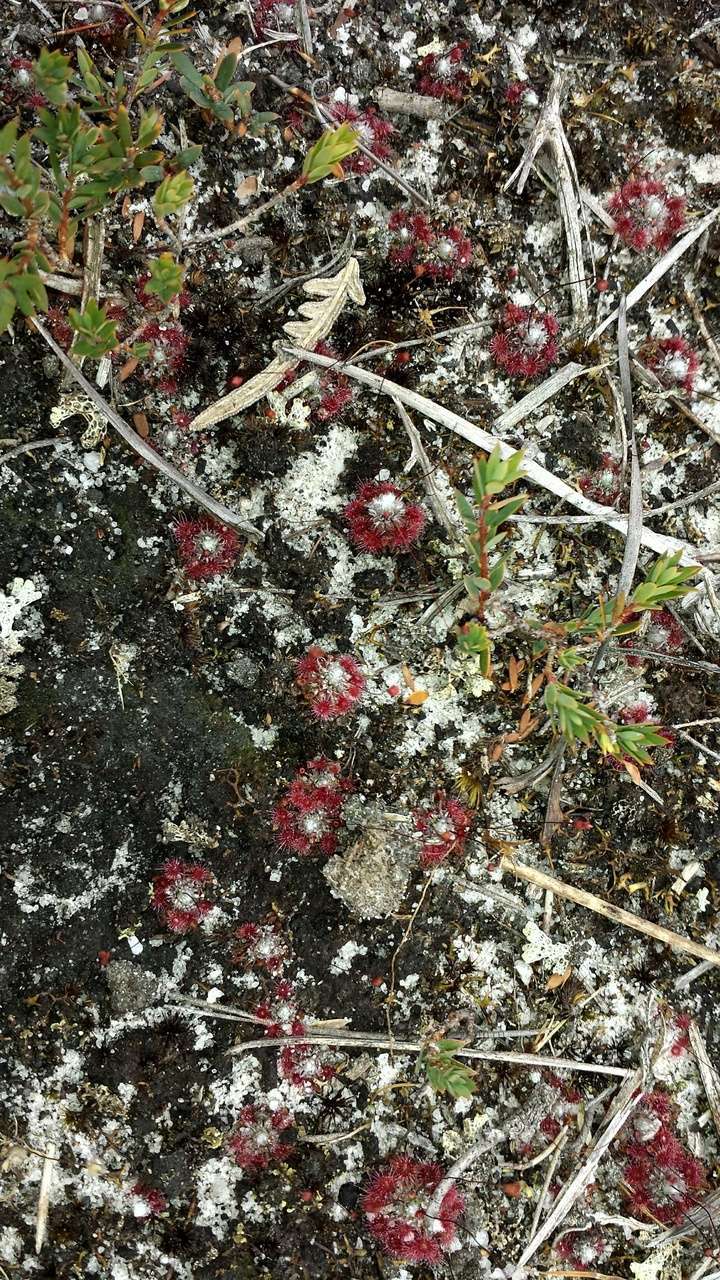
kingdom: Plantae
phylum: Tracheophyta
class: Magnoliopsida
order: Caryophyllales
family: Droseraceae
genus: Drosera
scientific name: Drosera pygmaea
